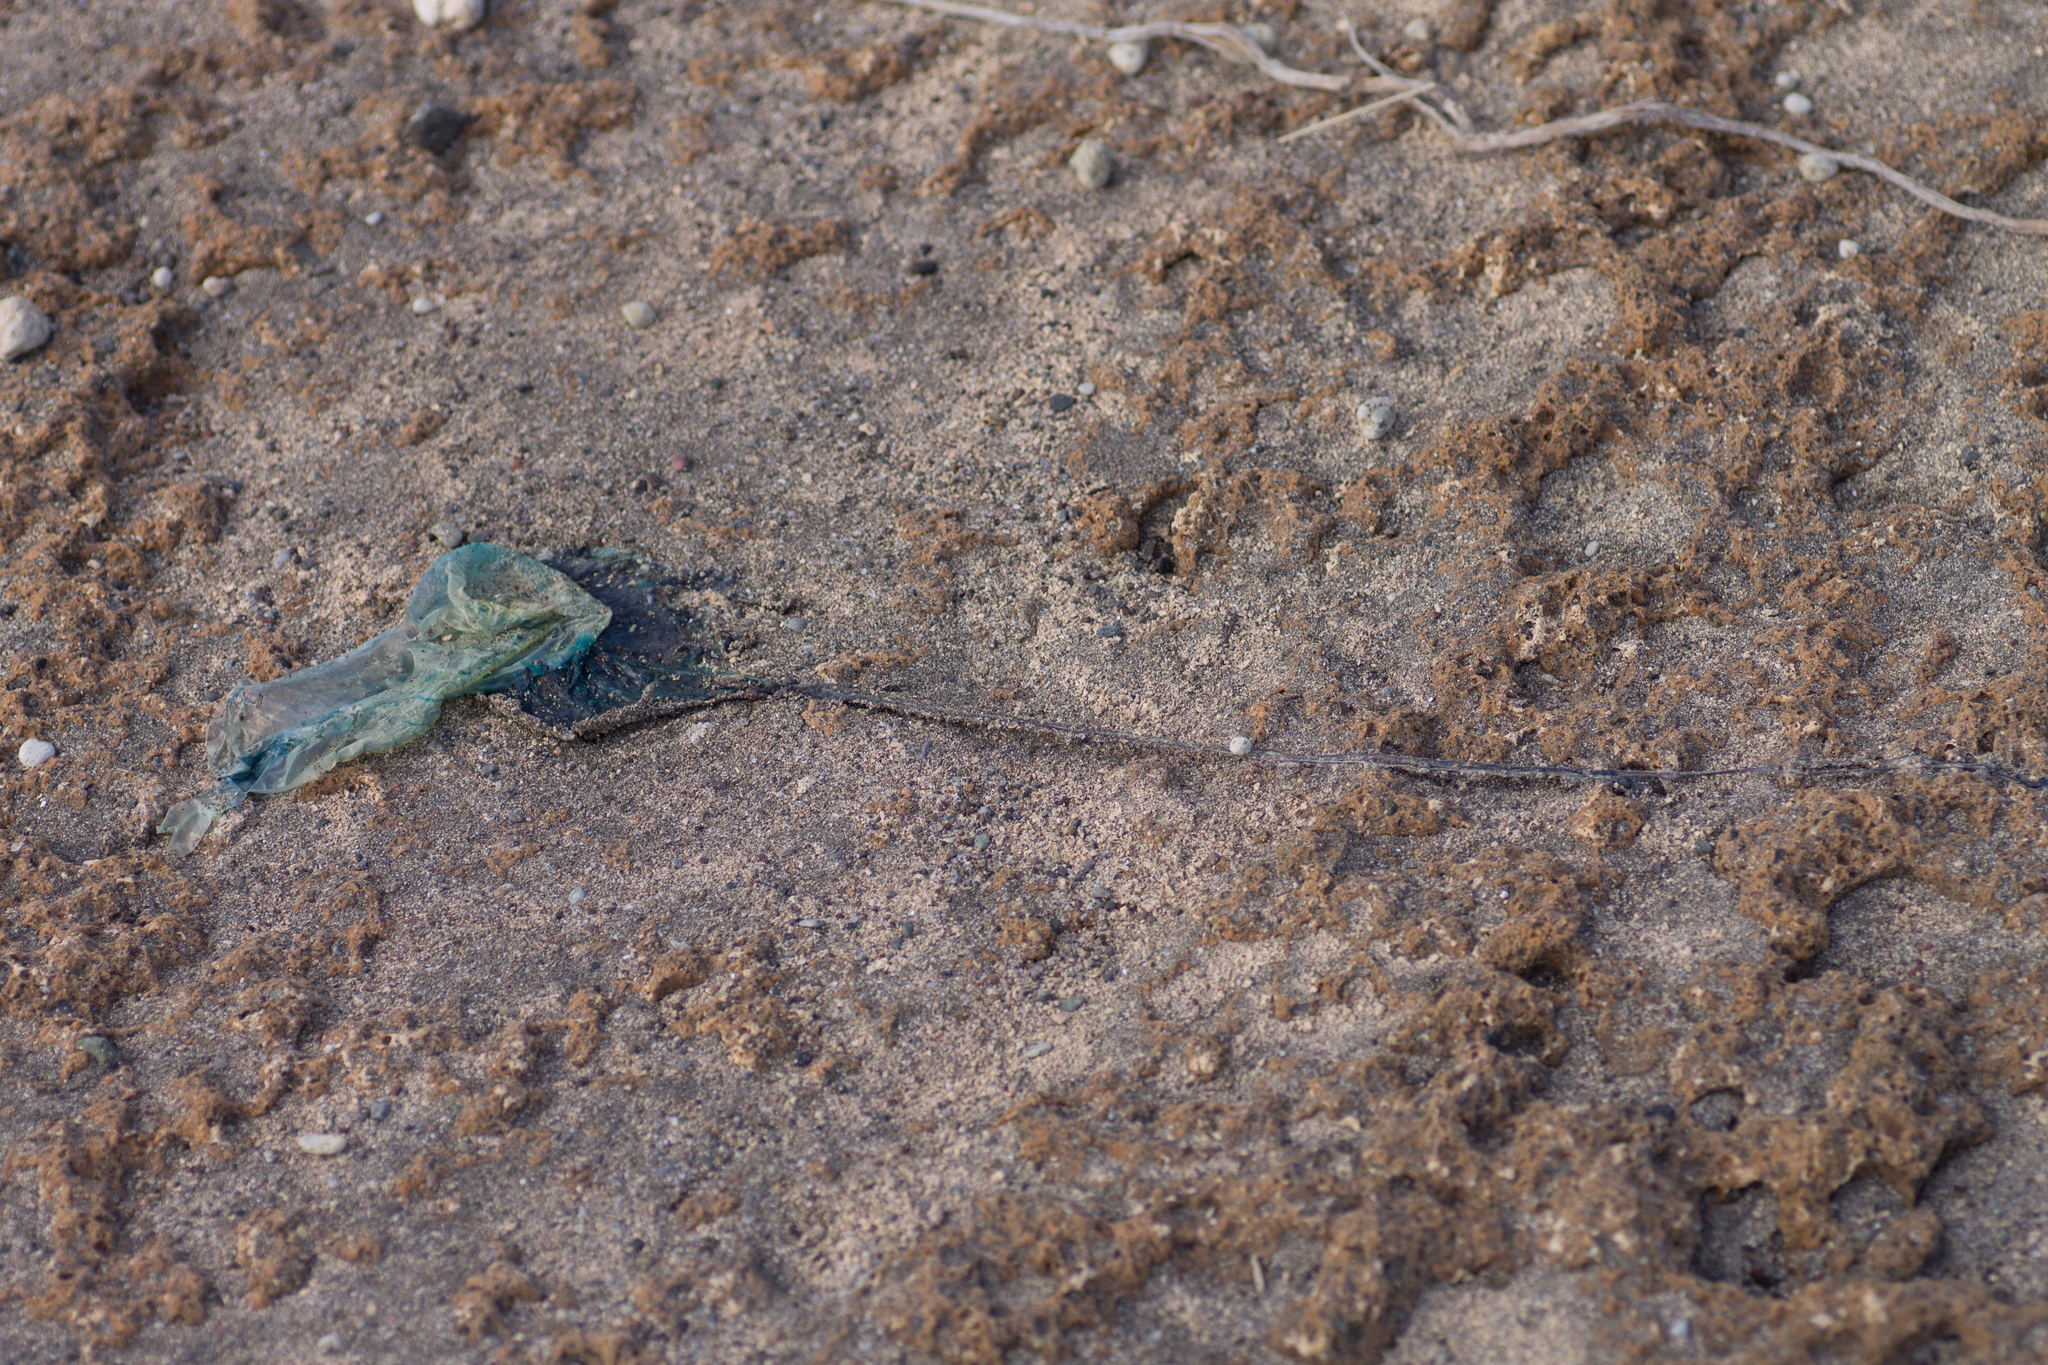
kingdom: Animalia
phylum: Cnidaria
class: Hydrozoa
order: Siphonophorae
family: Physaliidae
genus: Physalia
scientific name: Physalia physalis
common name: Portuguese man-of-war
